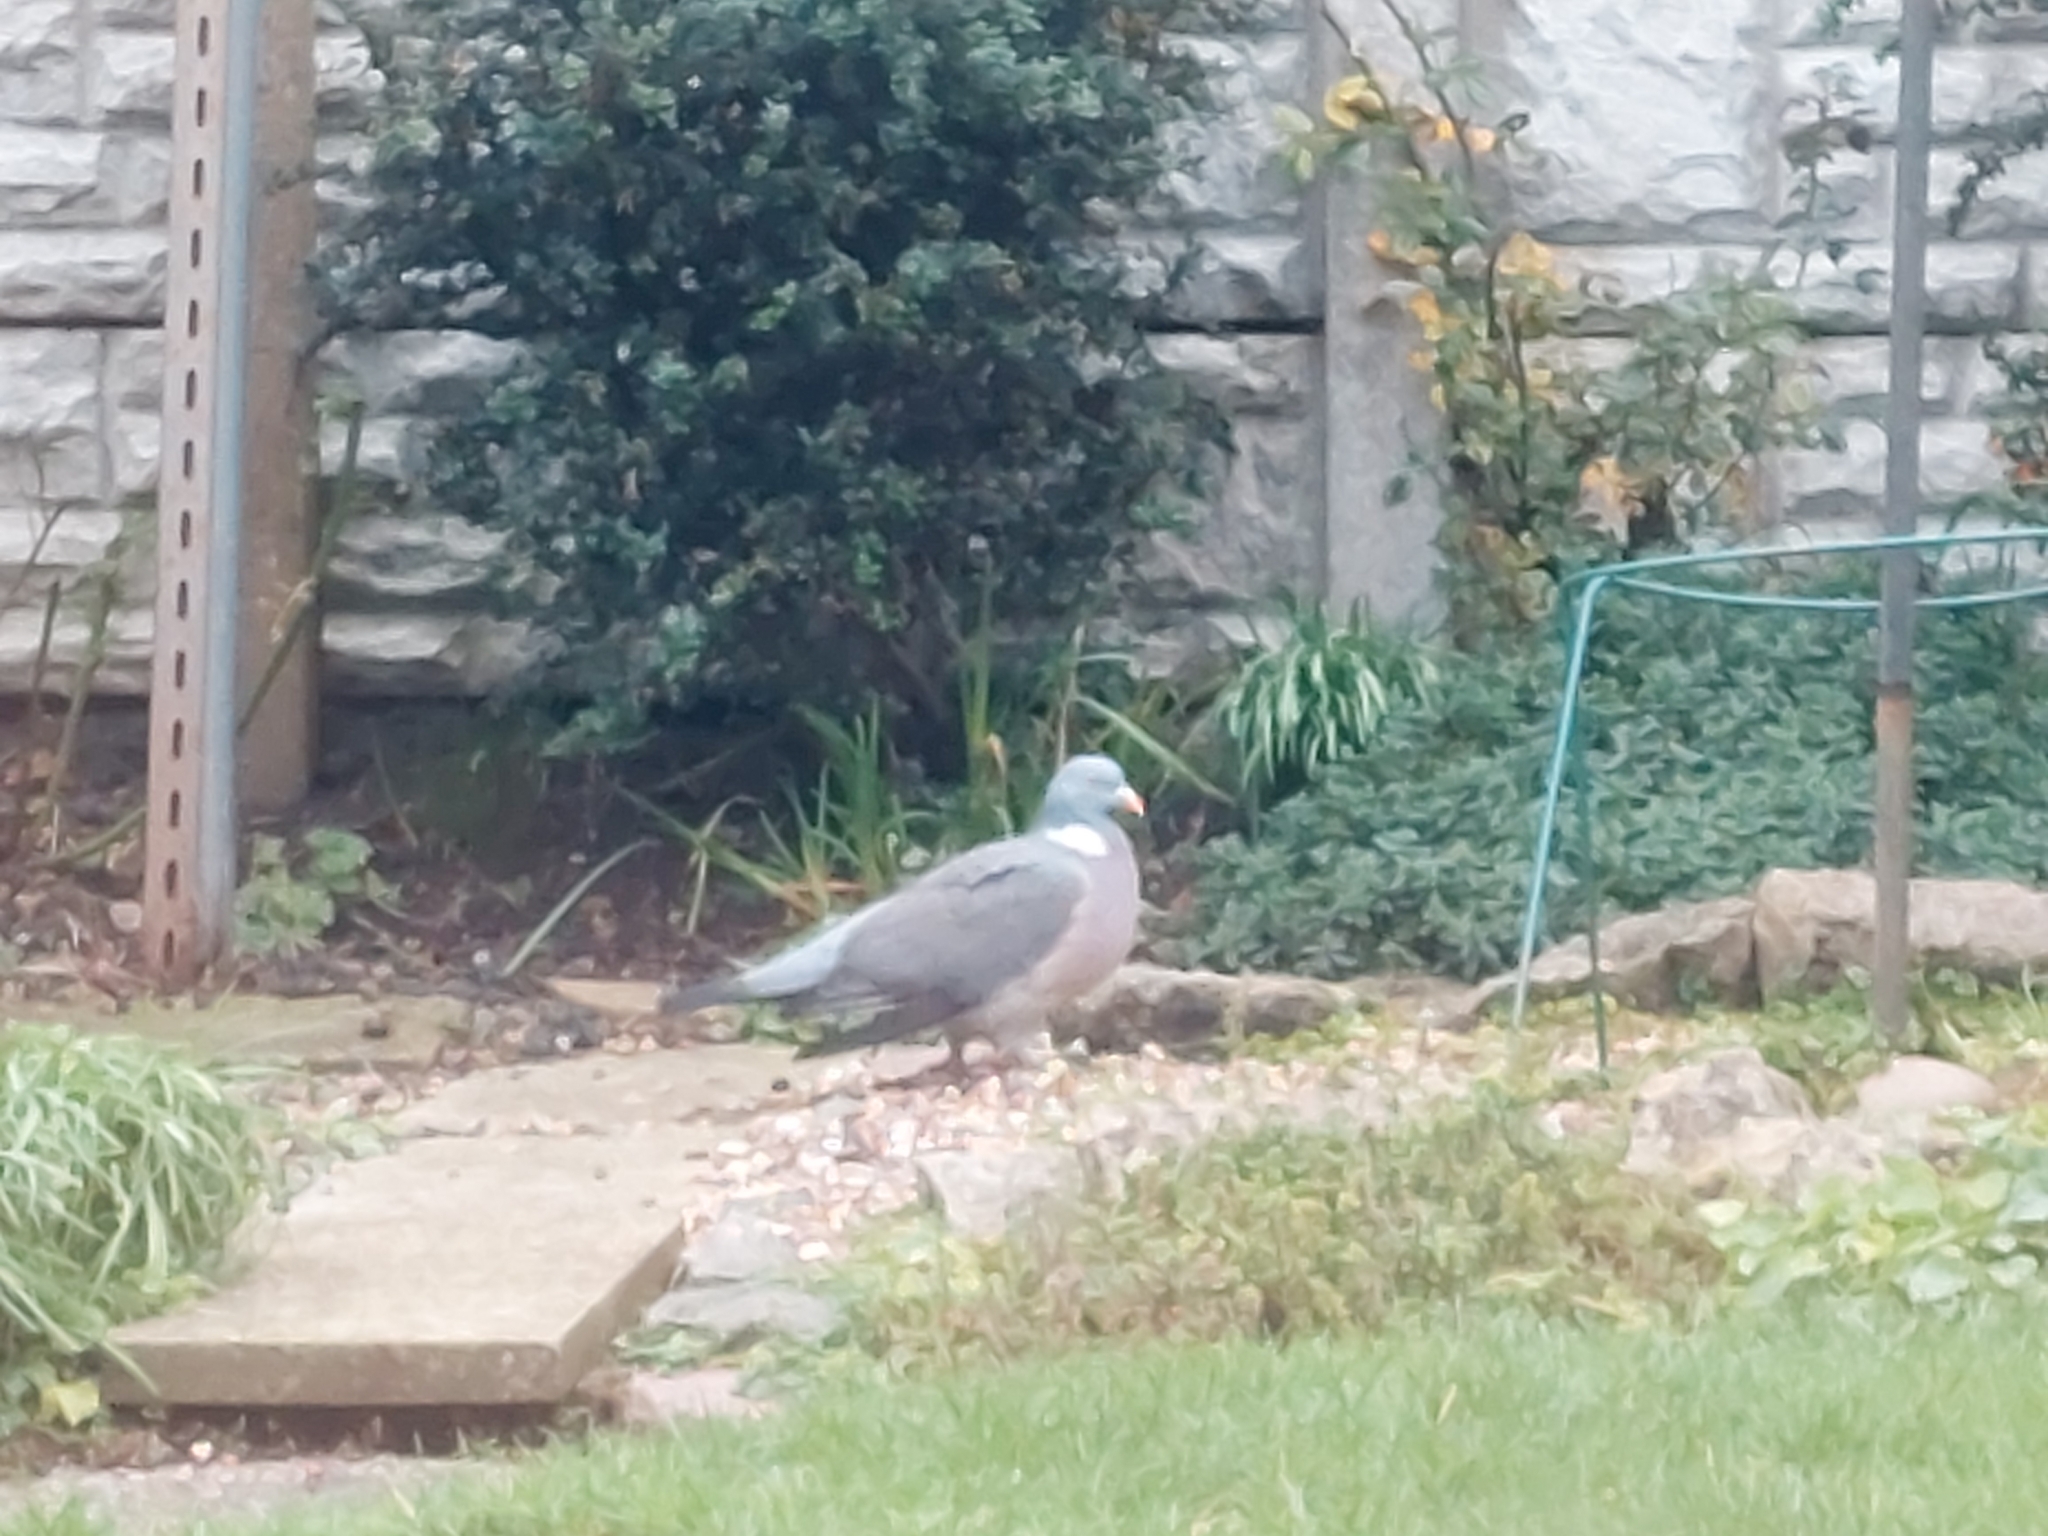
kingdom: Animalia
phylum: Chordata
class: Aves
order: Columbiformes
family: Columbidae
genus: Columba
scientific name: Columba palumbus
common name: Common wood pigeon
